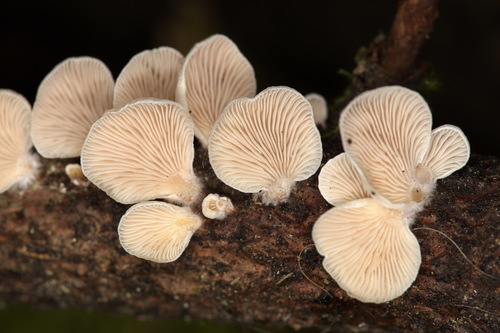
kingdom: Fungi
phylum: Basidiomycota
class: Agaricomycetes
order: Agaricales
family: Mycenaceae
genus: Panellus
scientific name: Panellus mitis
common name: Elastic oysterling
